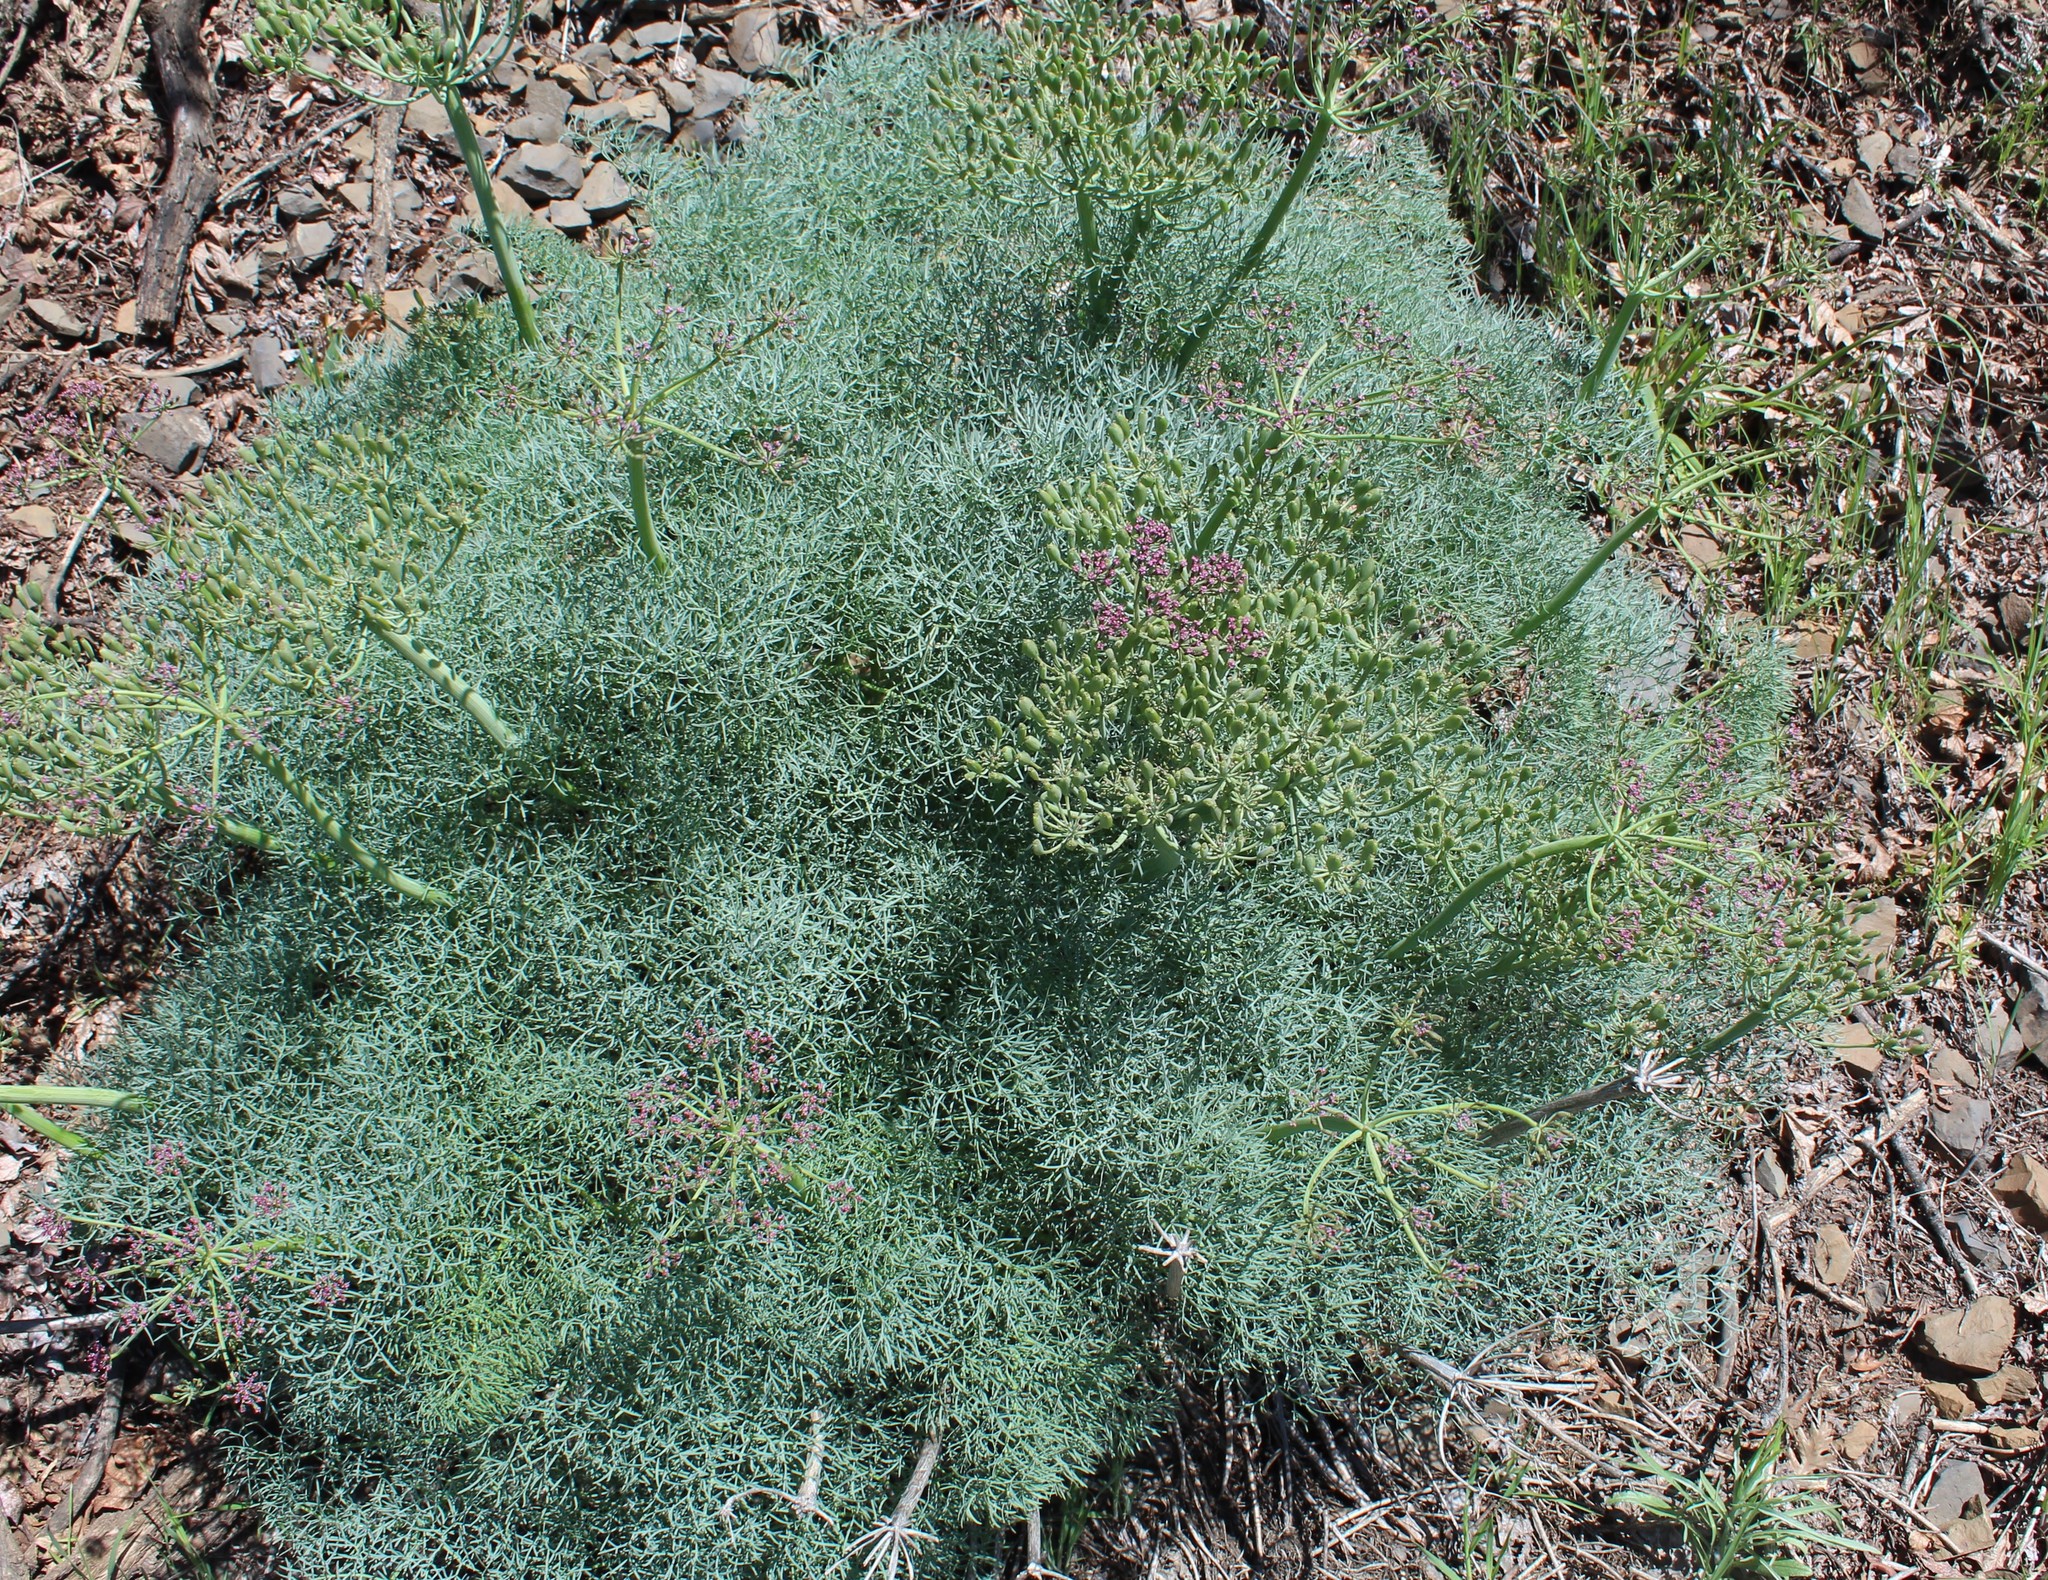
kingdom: Plantae
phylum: Tracheophyta
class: Magnoliopsida
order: Apiales
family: Apiaceae
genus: Lomatium
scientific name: Lomatium columbianum
